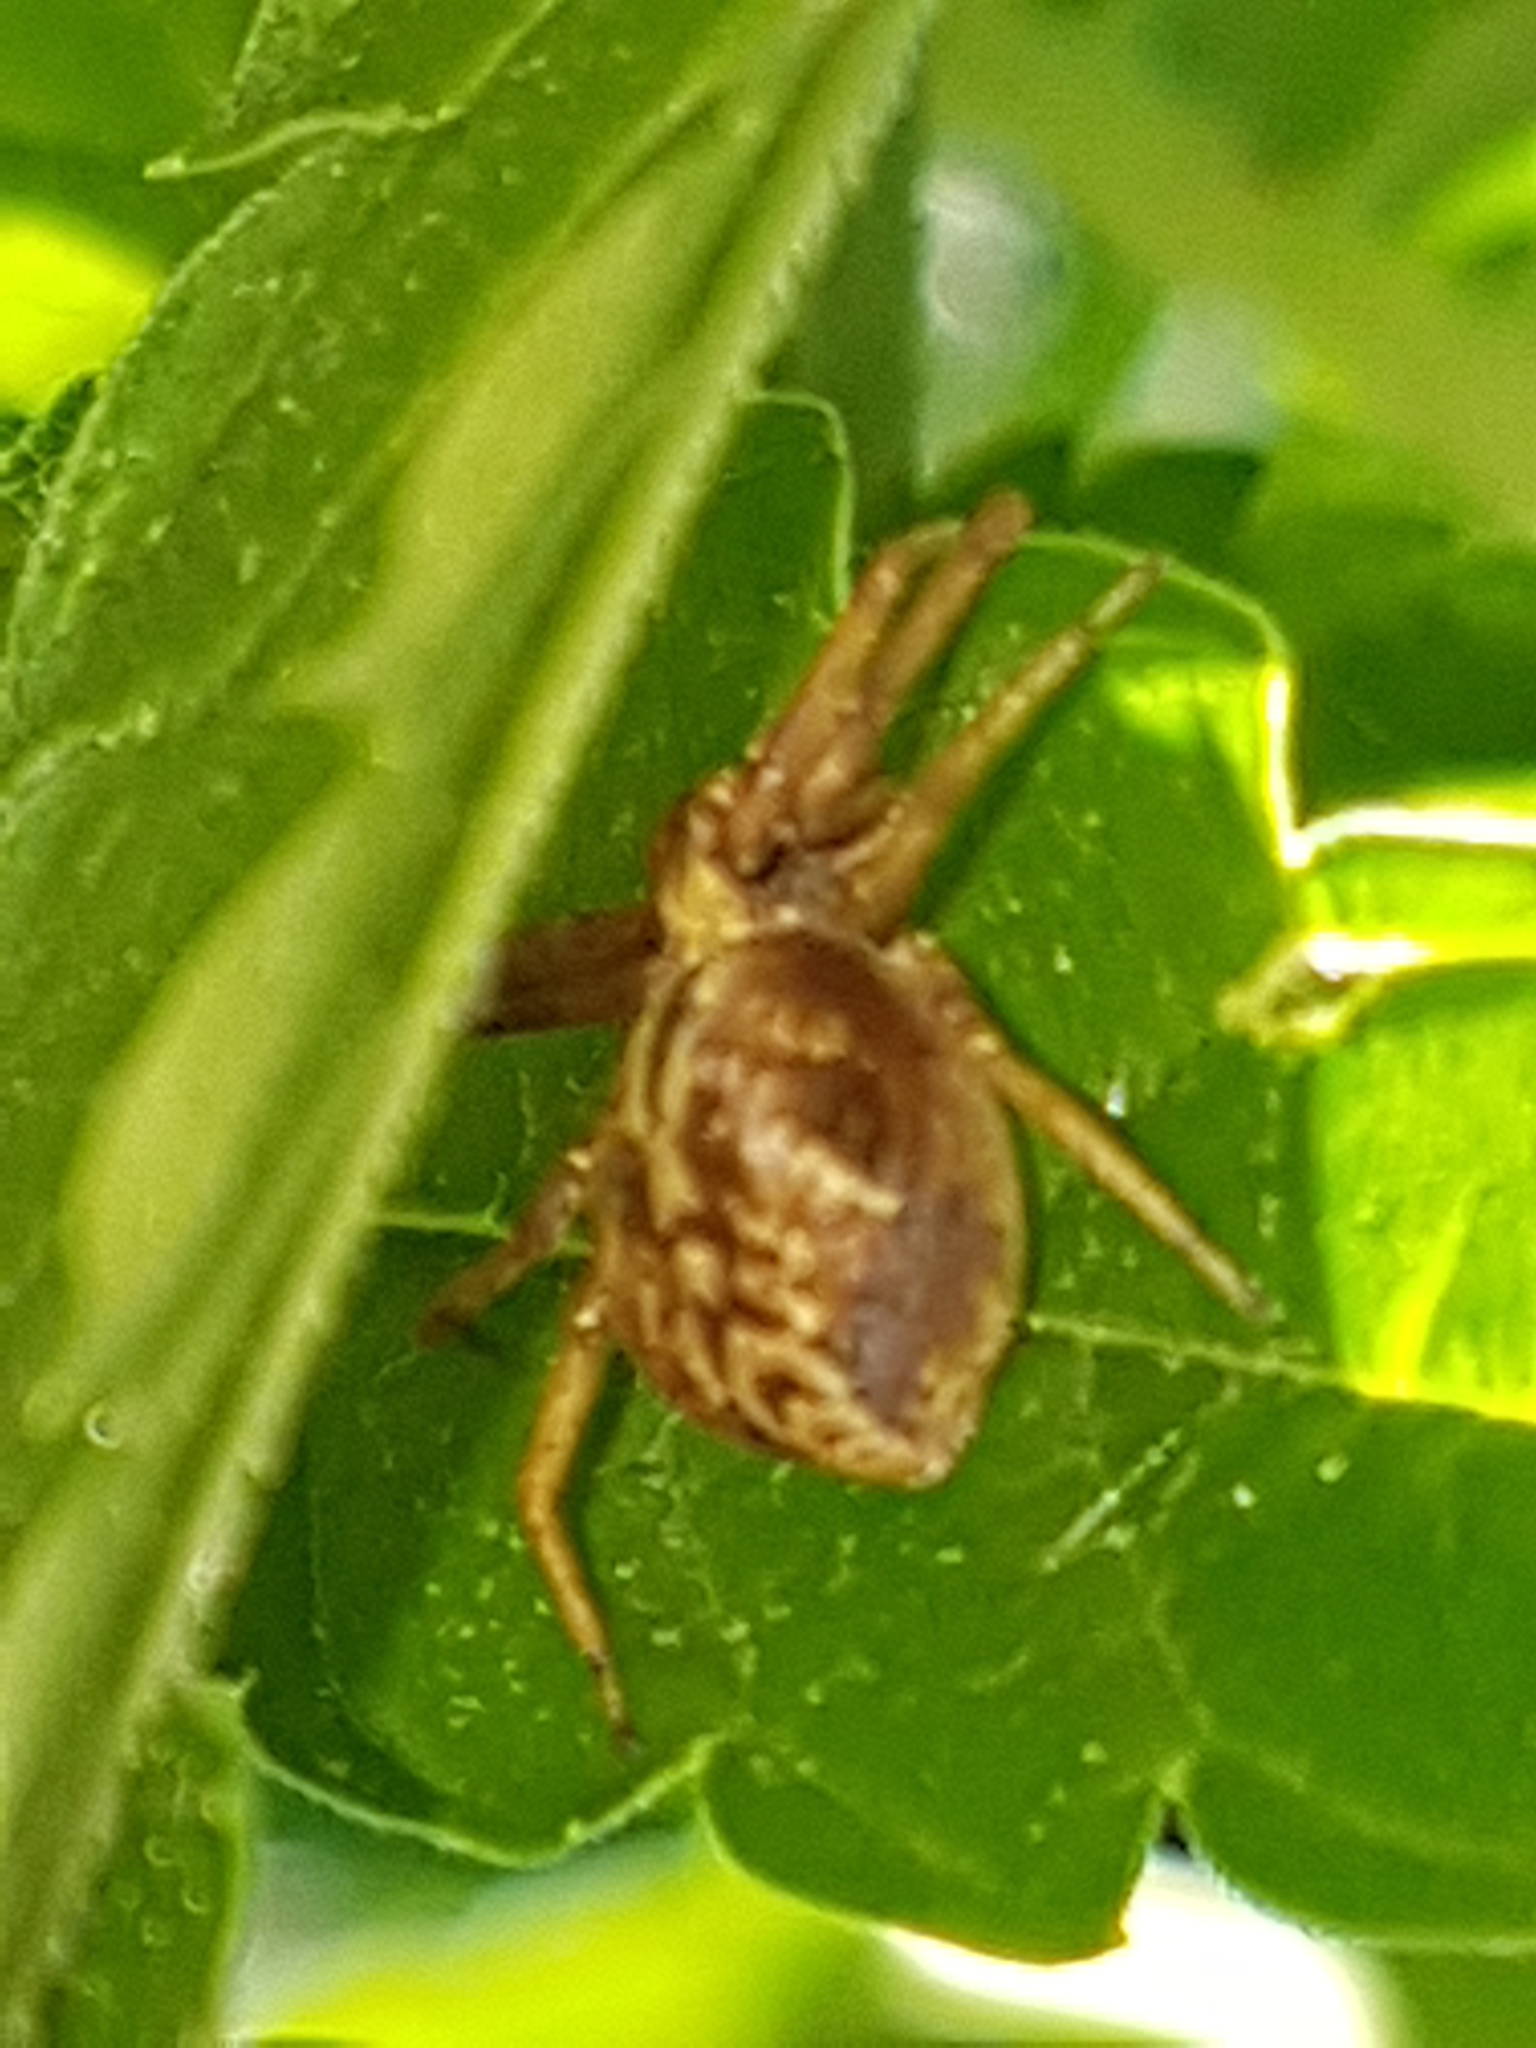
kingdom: Animalia
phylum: Arthropoda
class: Arachnida
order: Araneae
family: Philodromidae
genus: Philodromus
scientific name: Philodromus
